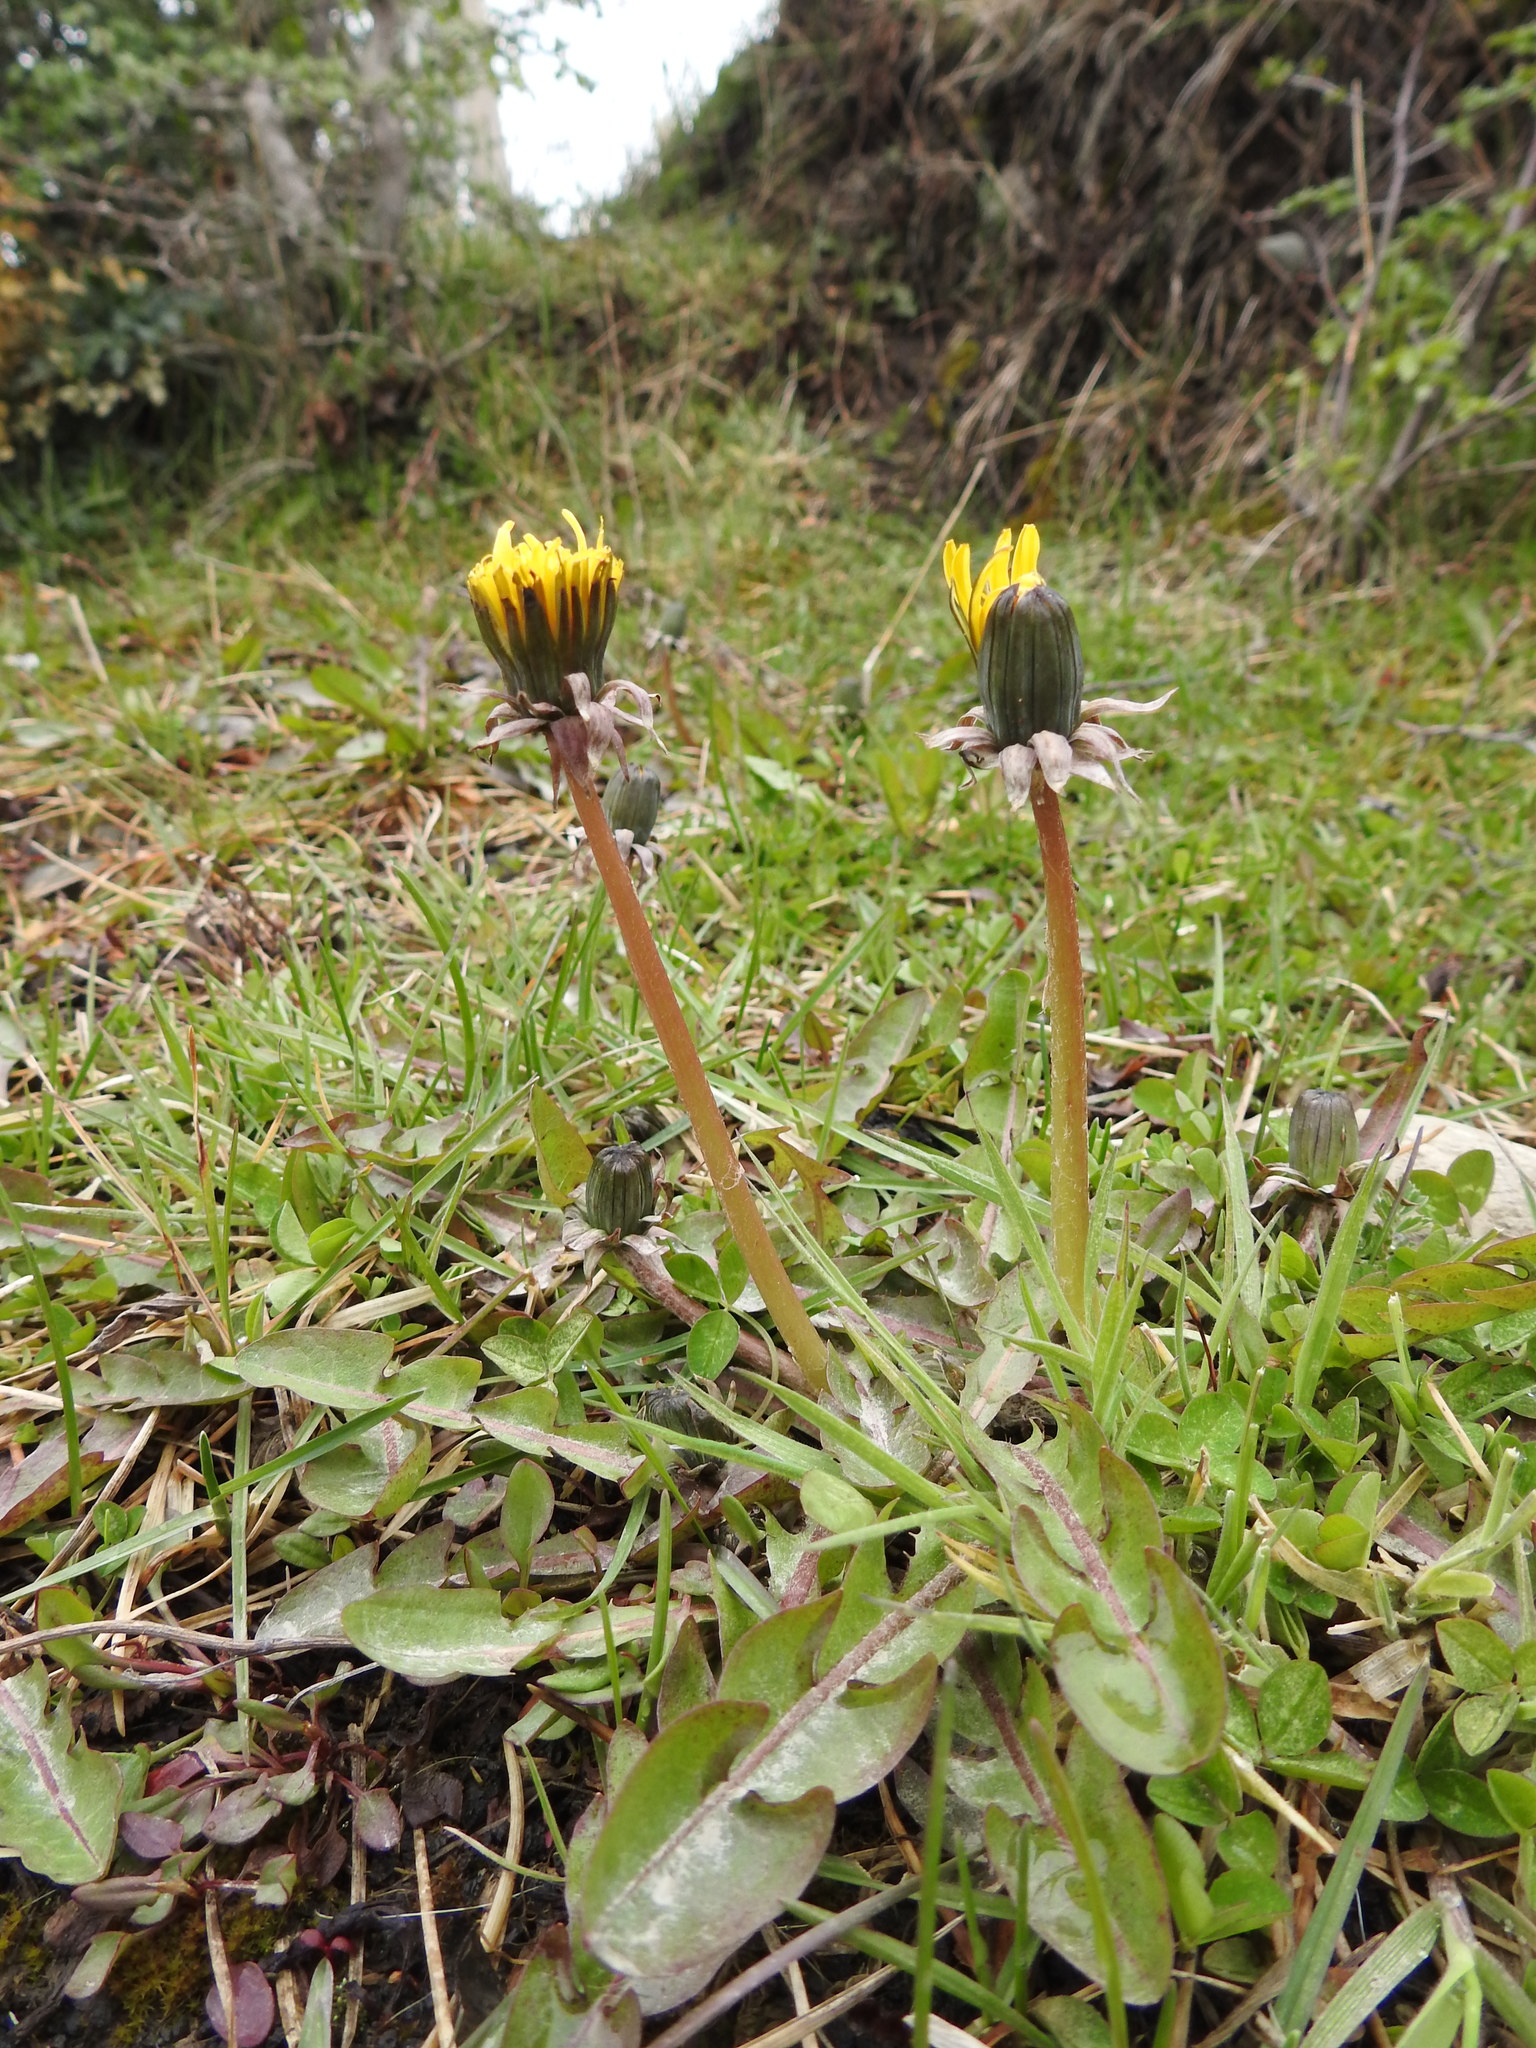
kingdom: Plantae
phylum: Tracheophyta
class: Magnoliopsida
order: Asterales
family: Asteraceae
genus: Taraxacum
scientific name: Taraxacum officinale
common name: Common dandelion
